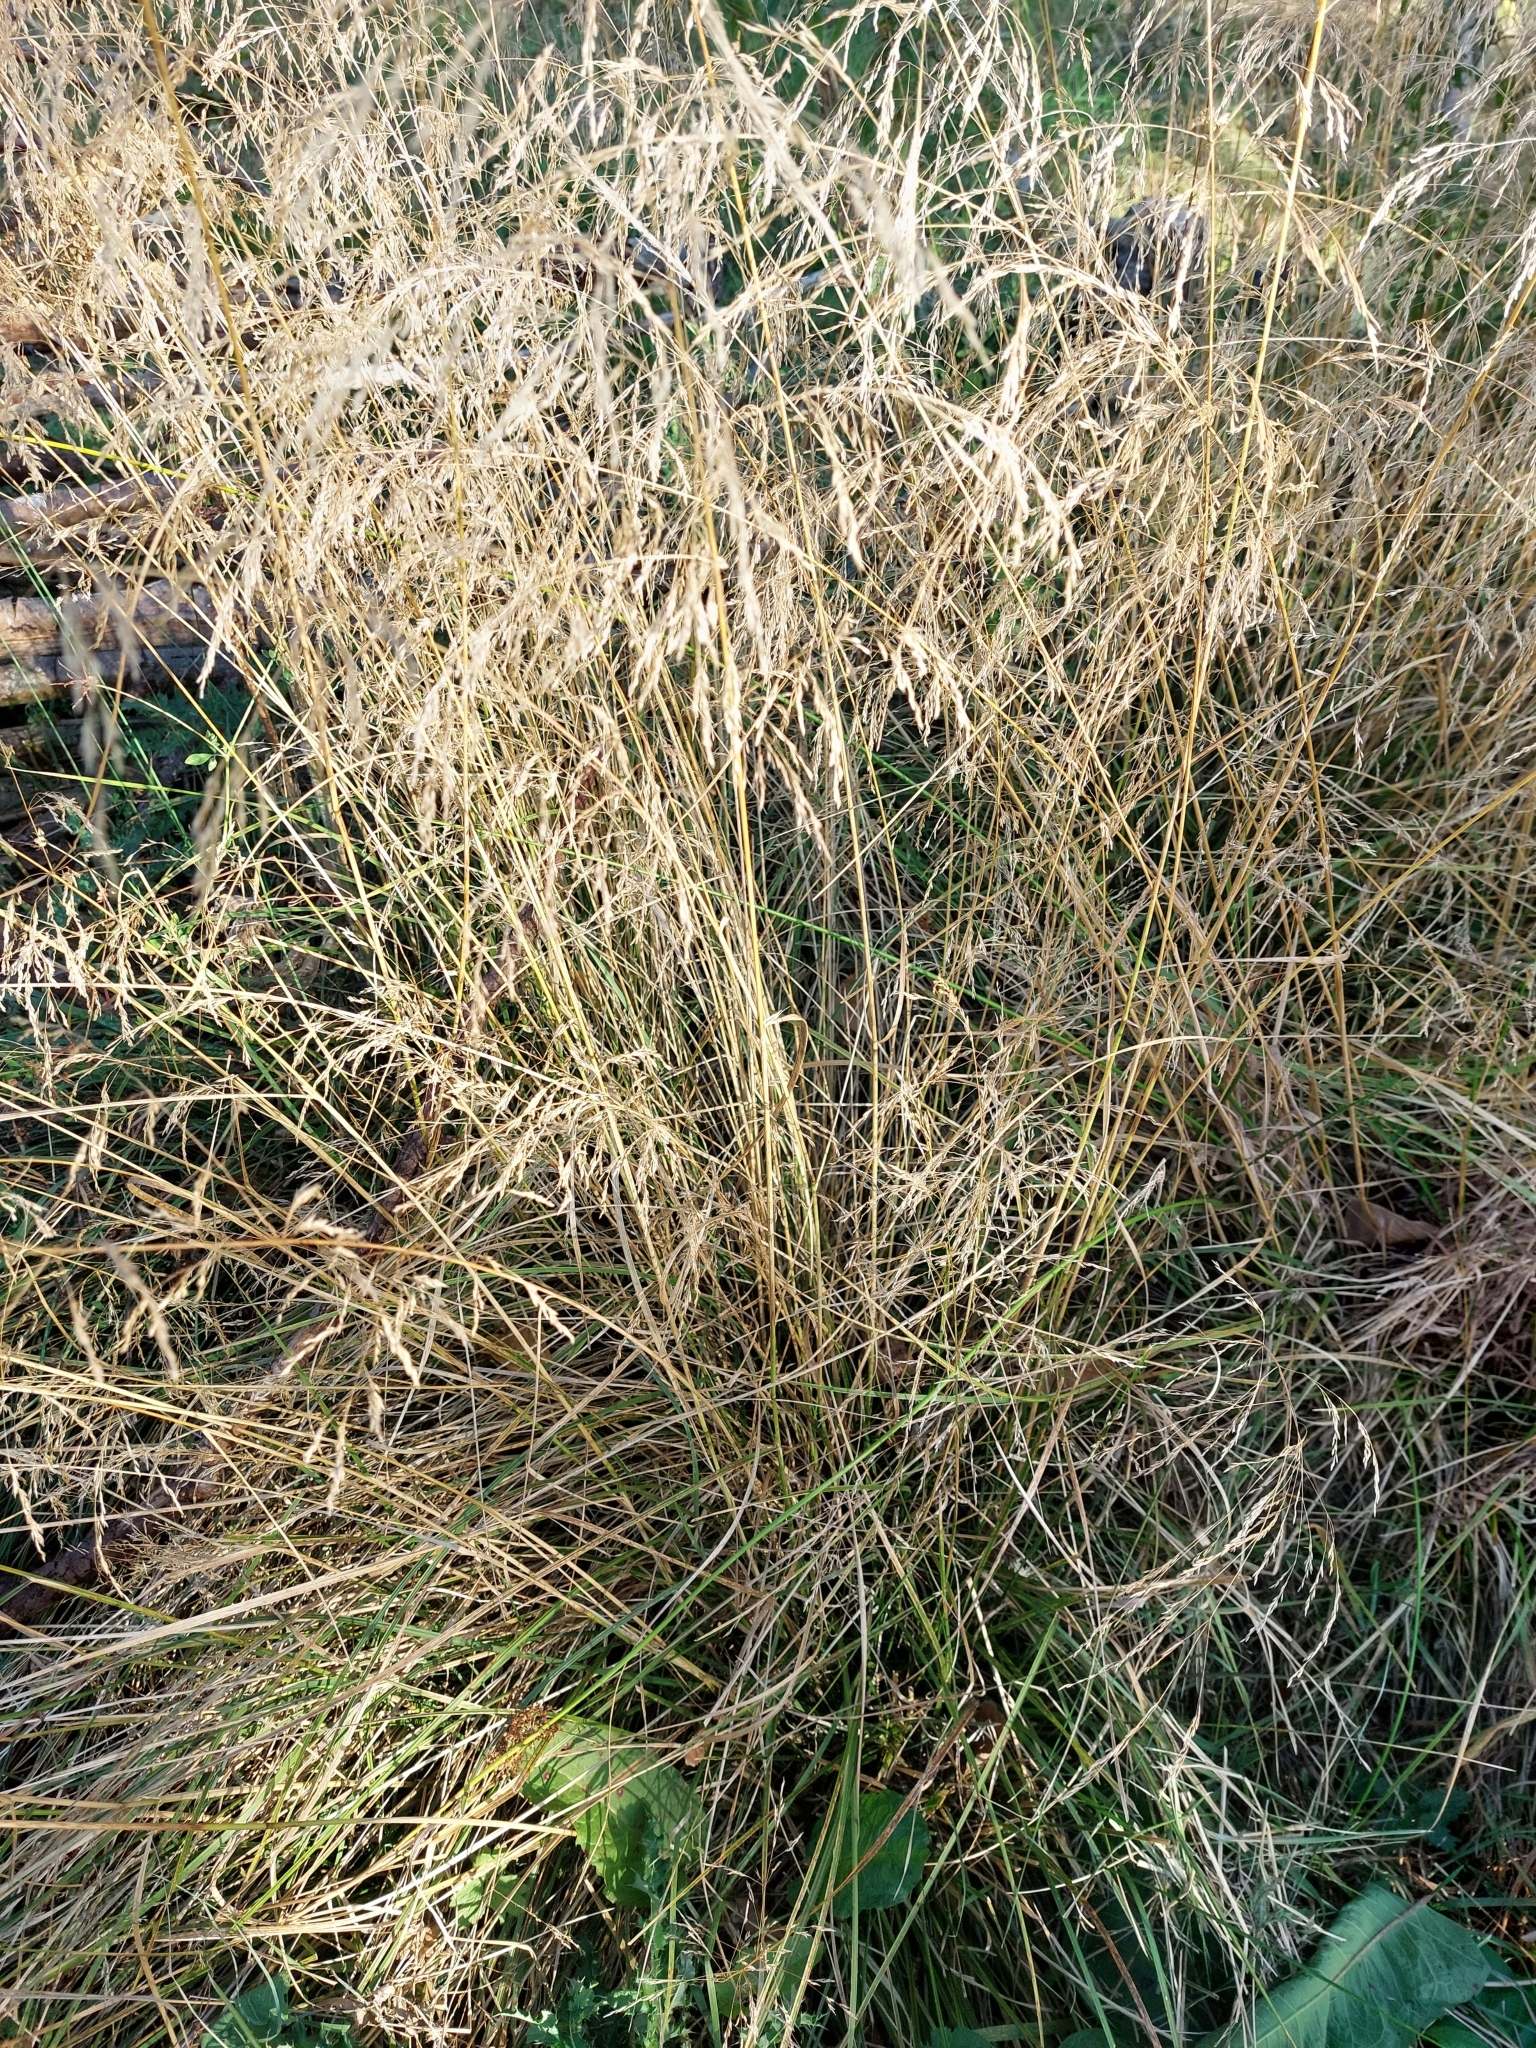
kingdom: Plantae
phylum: Tracheophyta
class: Liliopsida
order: Poales
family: Poaceae
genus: Deschampsia
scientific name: Deschampsia cespitosa
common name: Tufted hair-grass
